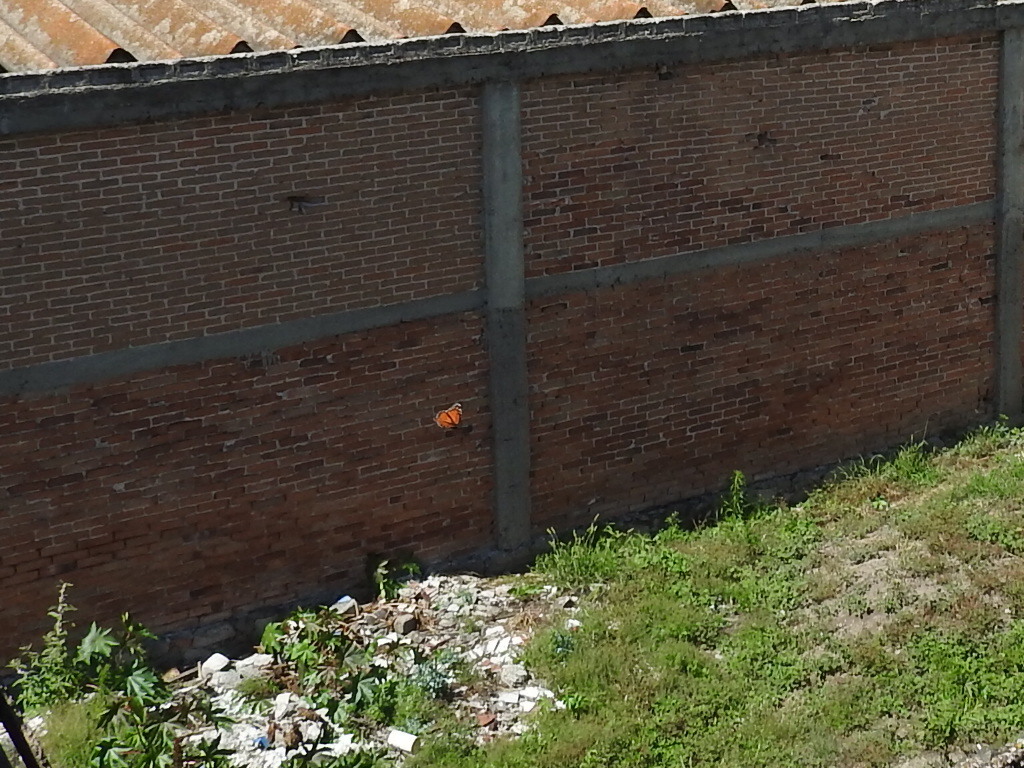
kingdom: Animalia
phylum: Arthropoda
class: Insecta
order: Lepidoptera
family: Nymphalidae
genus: Danaus
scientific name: Danaus plexippus
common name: Monarch
